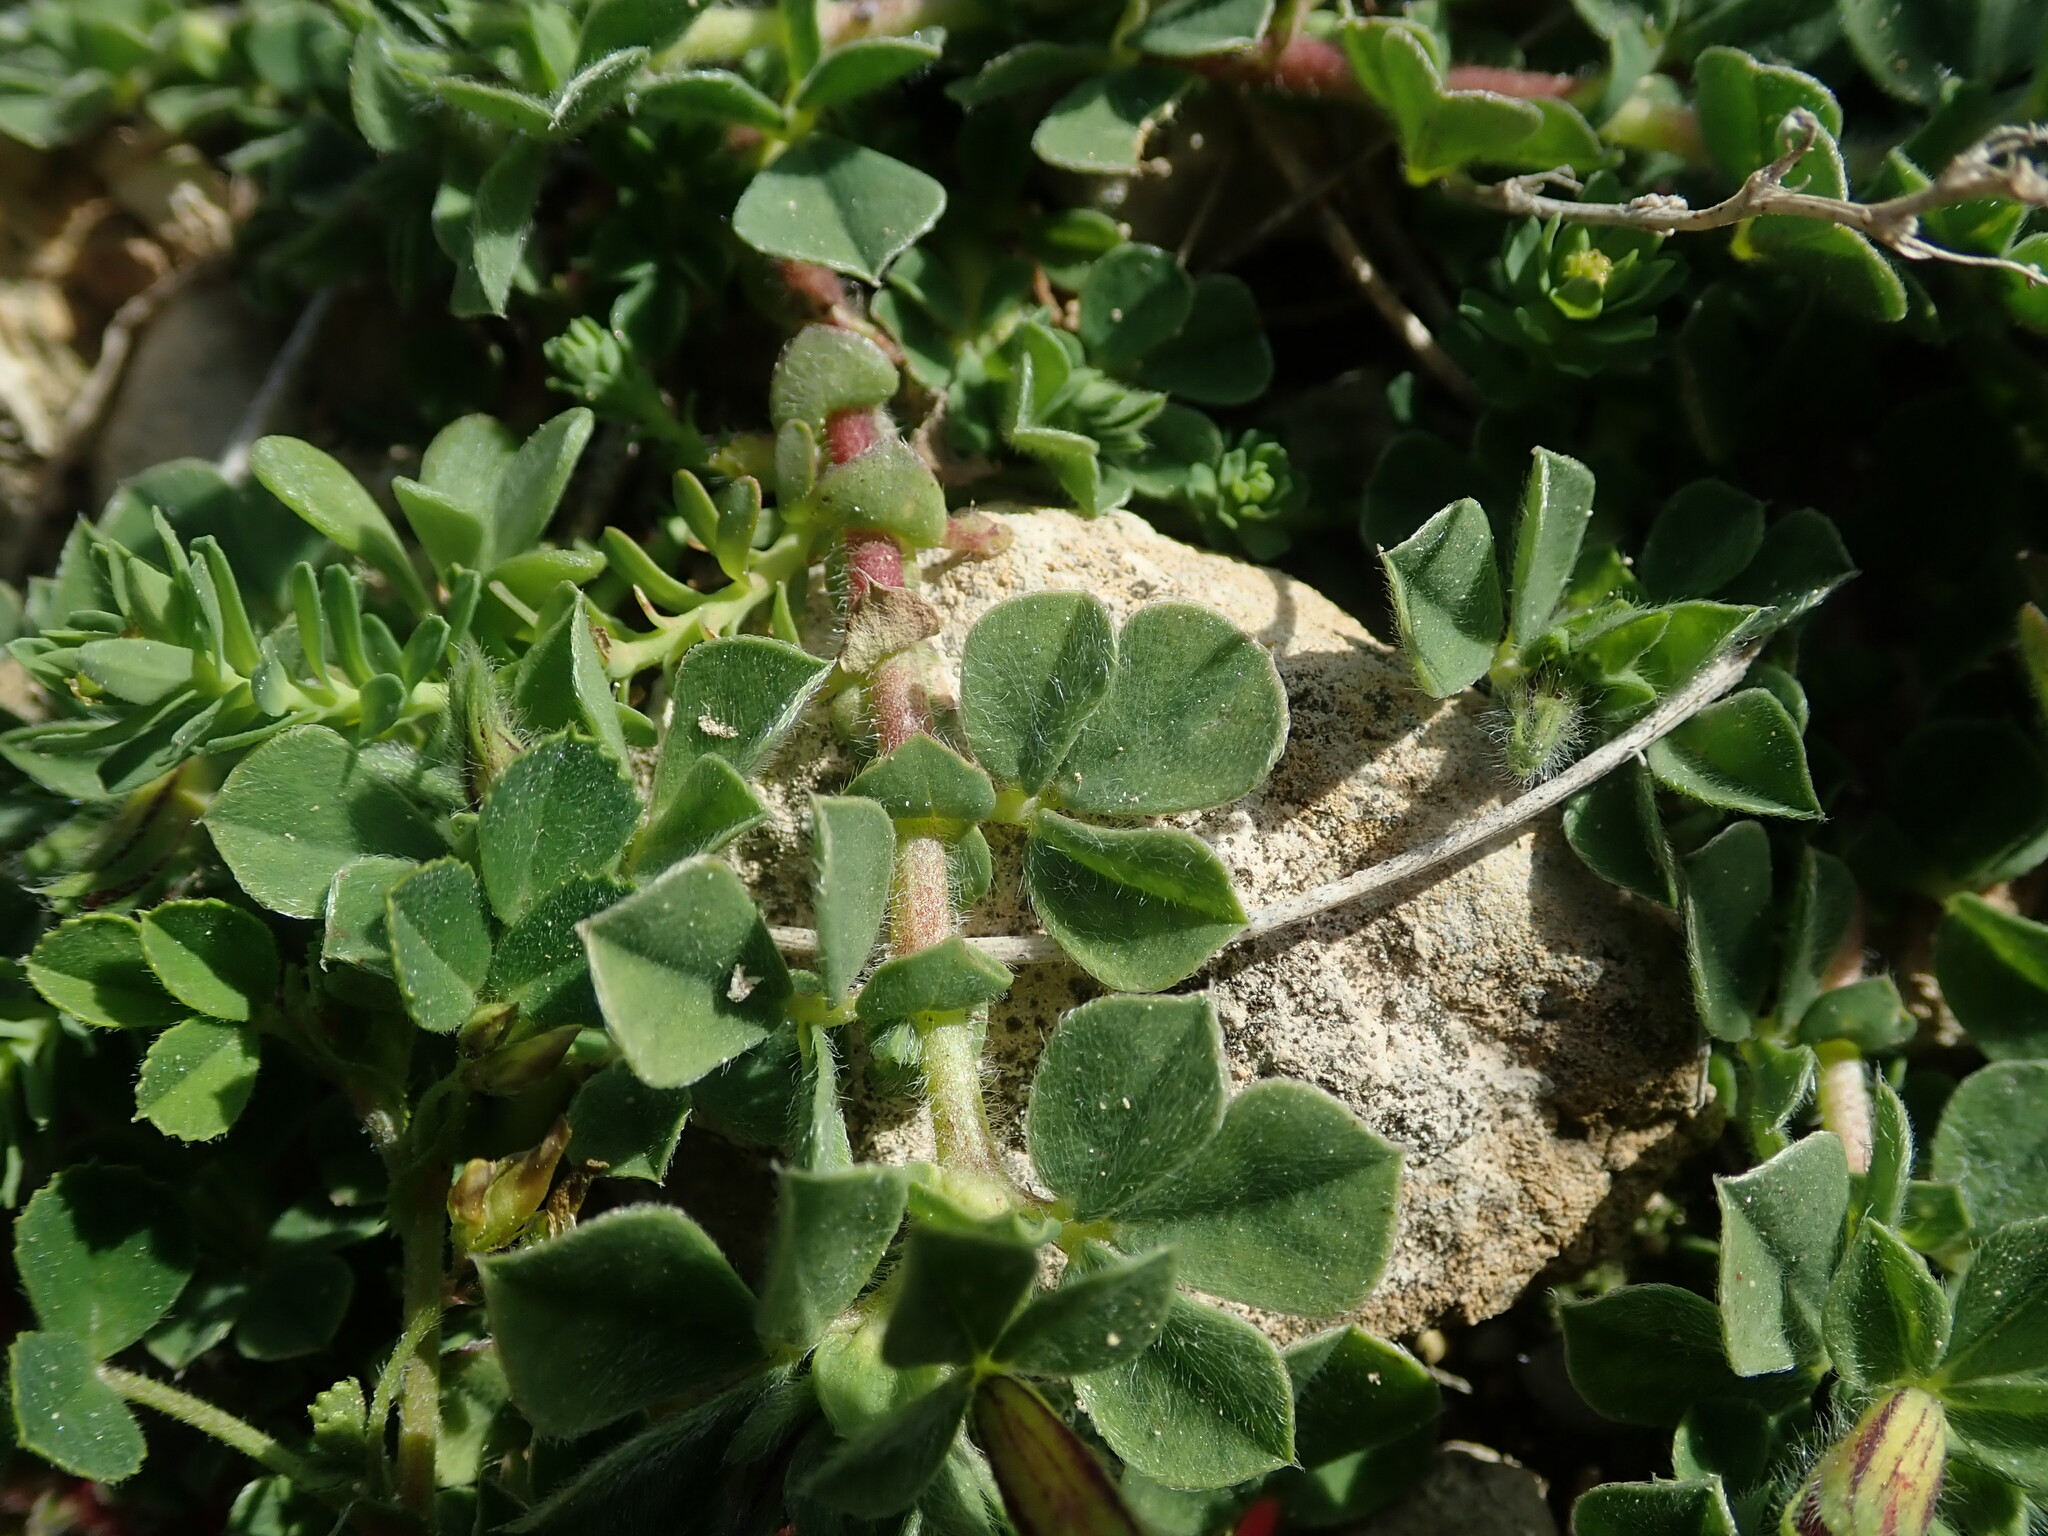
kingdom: Plantae
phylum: Tracheophyta
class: Magnoliopsida
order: Fabales
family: Fabaceae
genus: Lotus
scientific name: Lotus tetragonolobus
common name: Asparagus-pea
